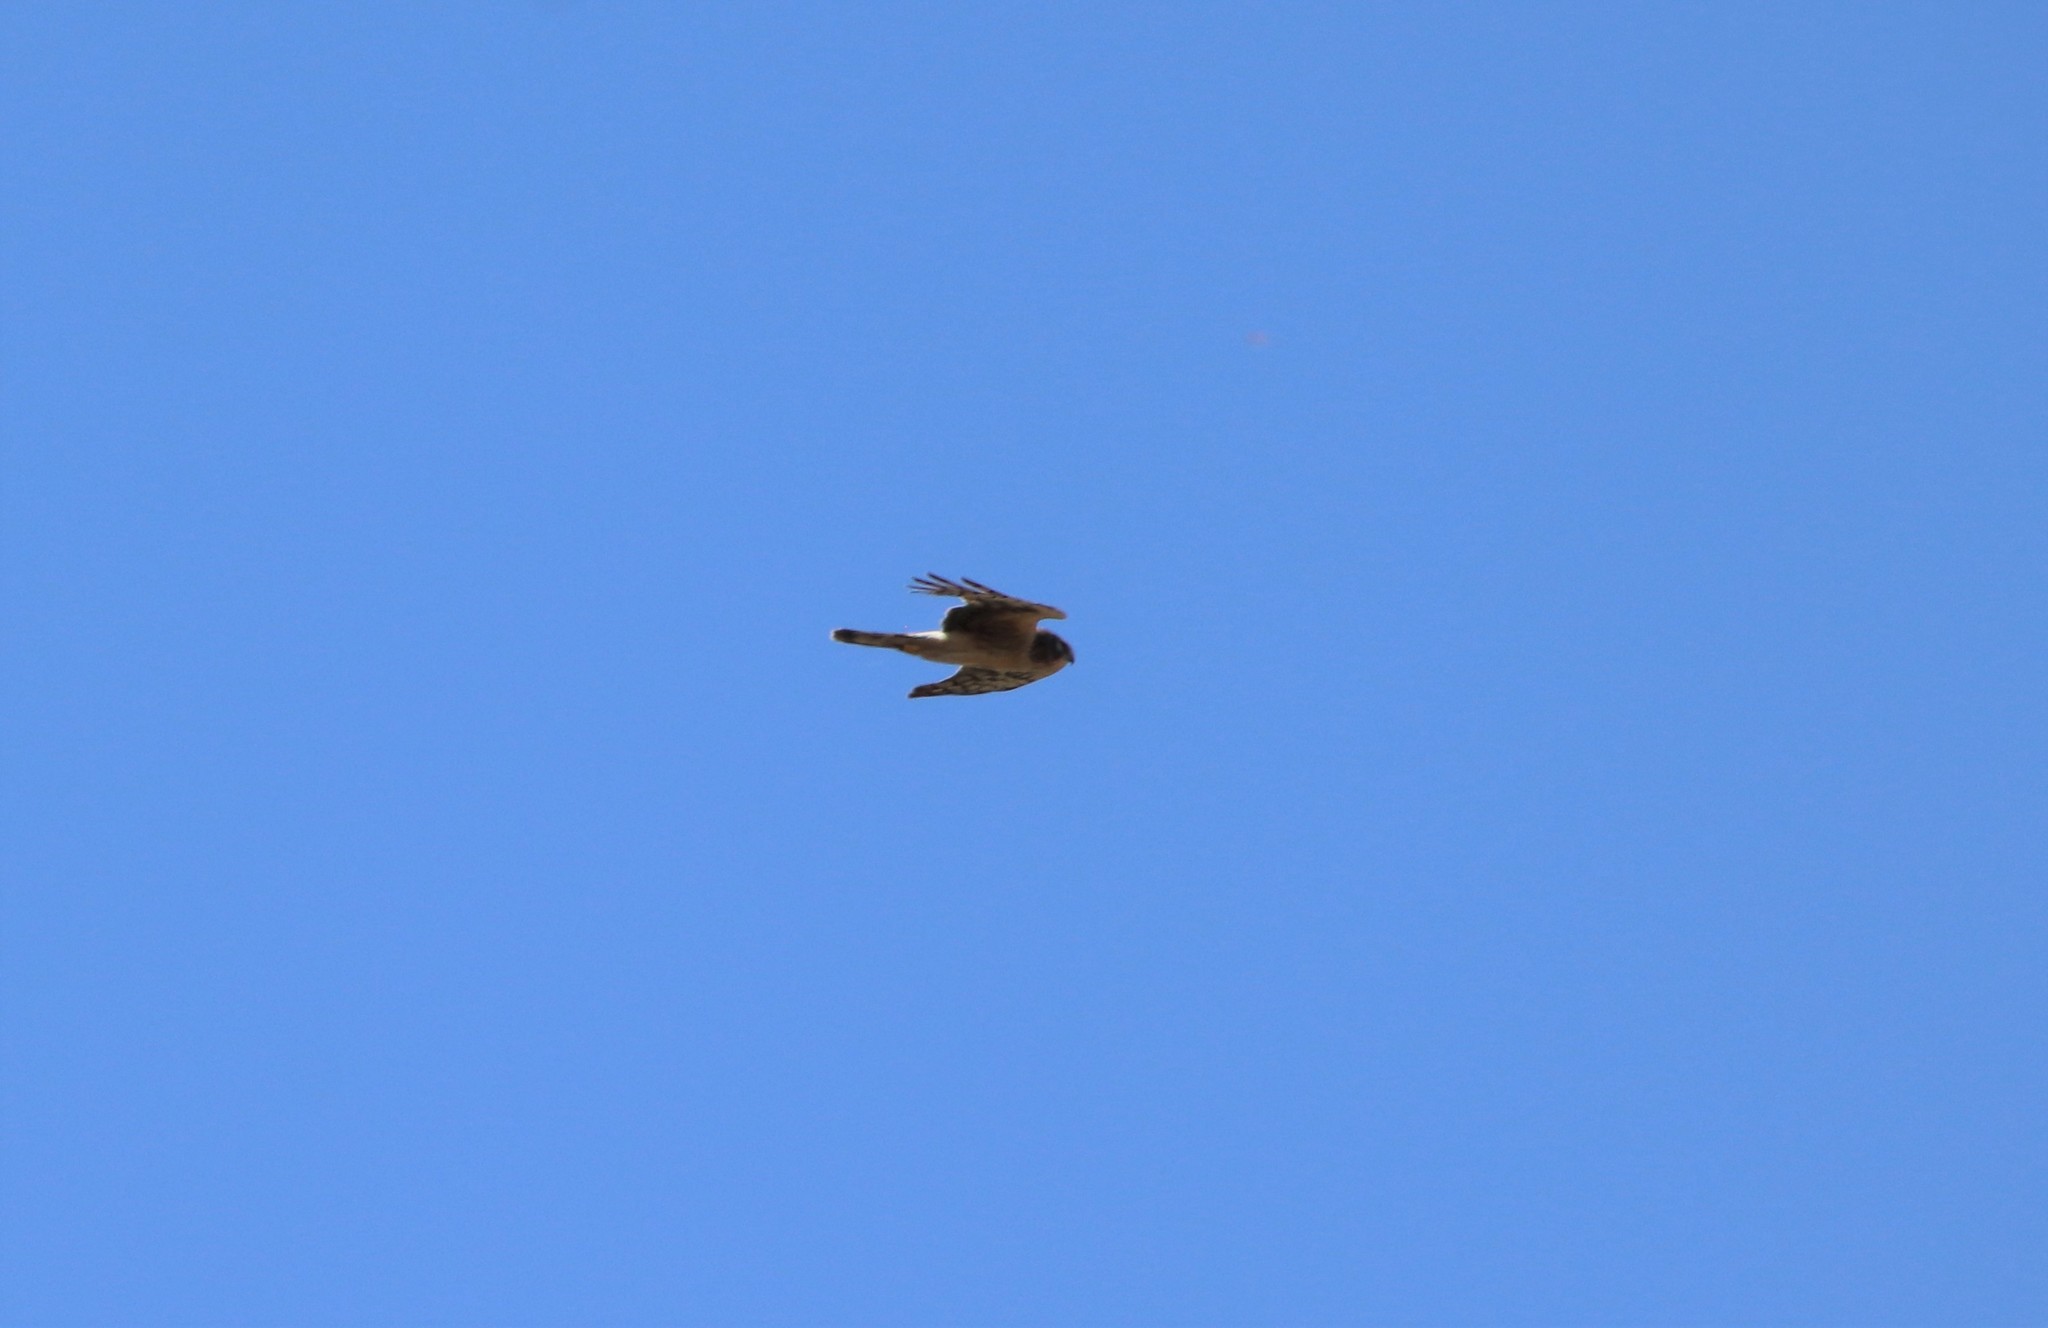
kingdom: Animalia
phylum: Chordata
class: Aves
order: Accipitriformes
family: Accipitridae
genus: Circus
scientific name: Circus cyaneus
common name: Hen harrier
